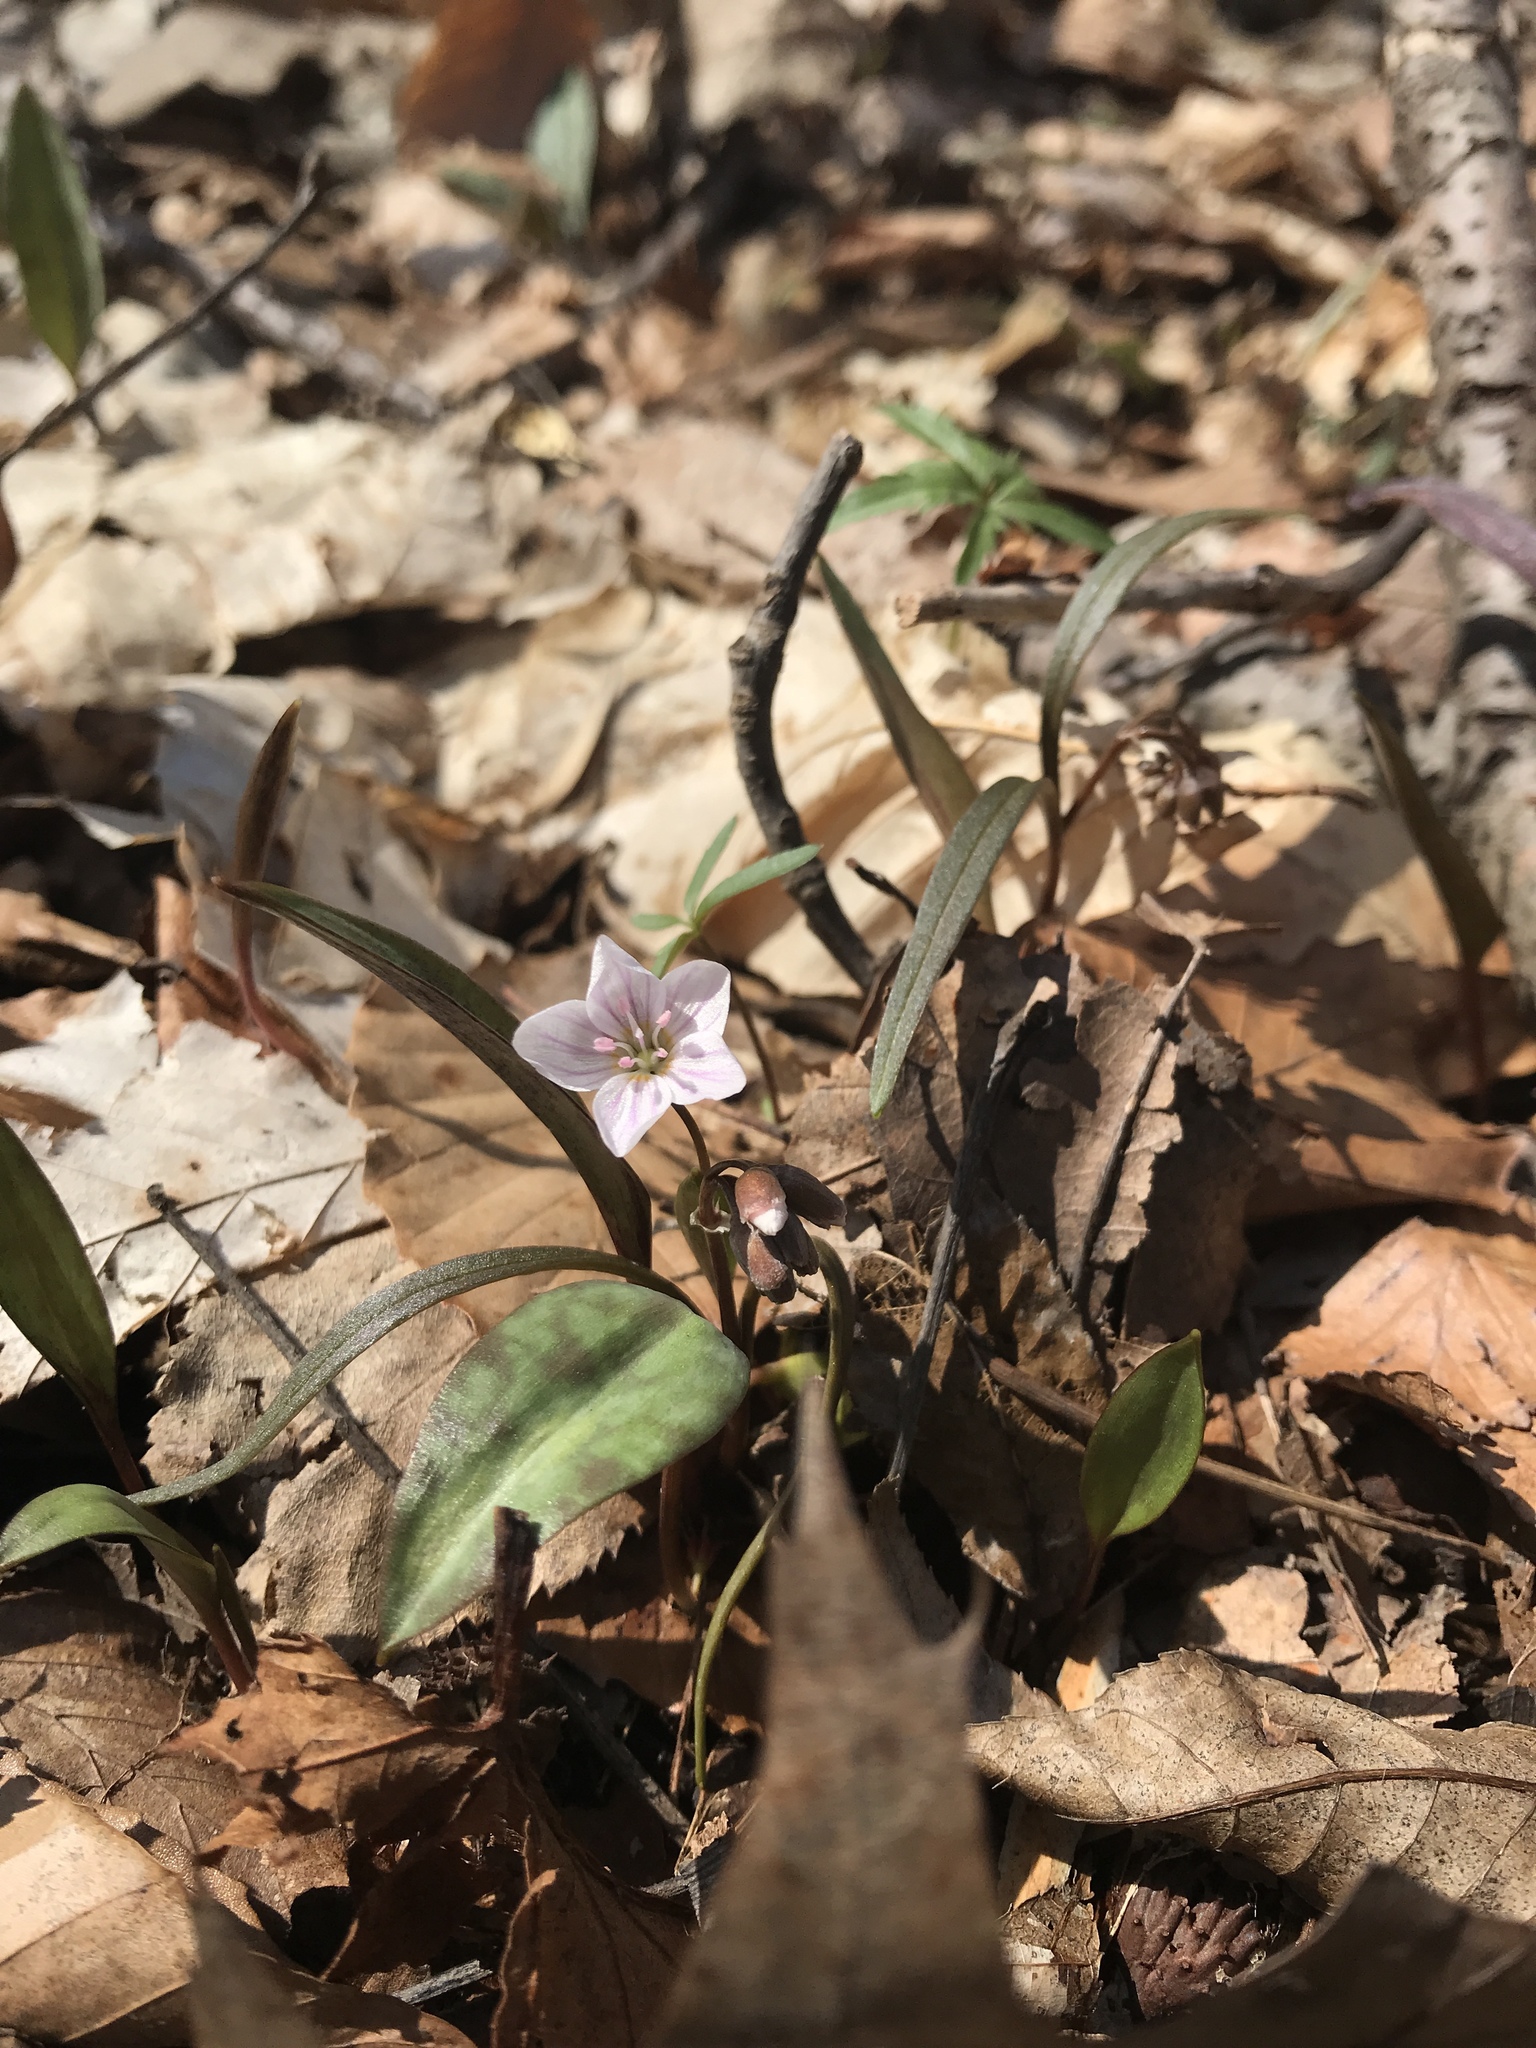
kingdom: Plantae
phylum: Tracheophyta
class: Magnoliopsida
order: Caryophyllales
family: Montiaceae
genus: Claytonia
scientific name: Claytonia virginica
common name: Virginia springbeauty
